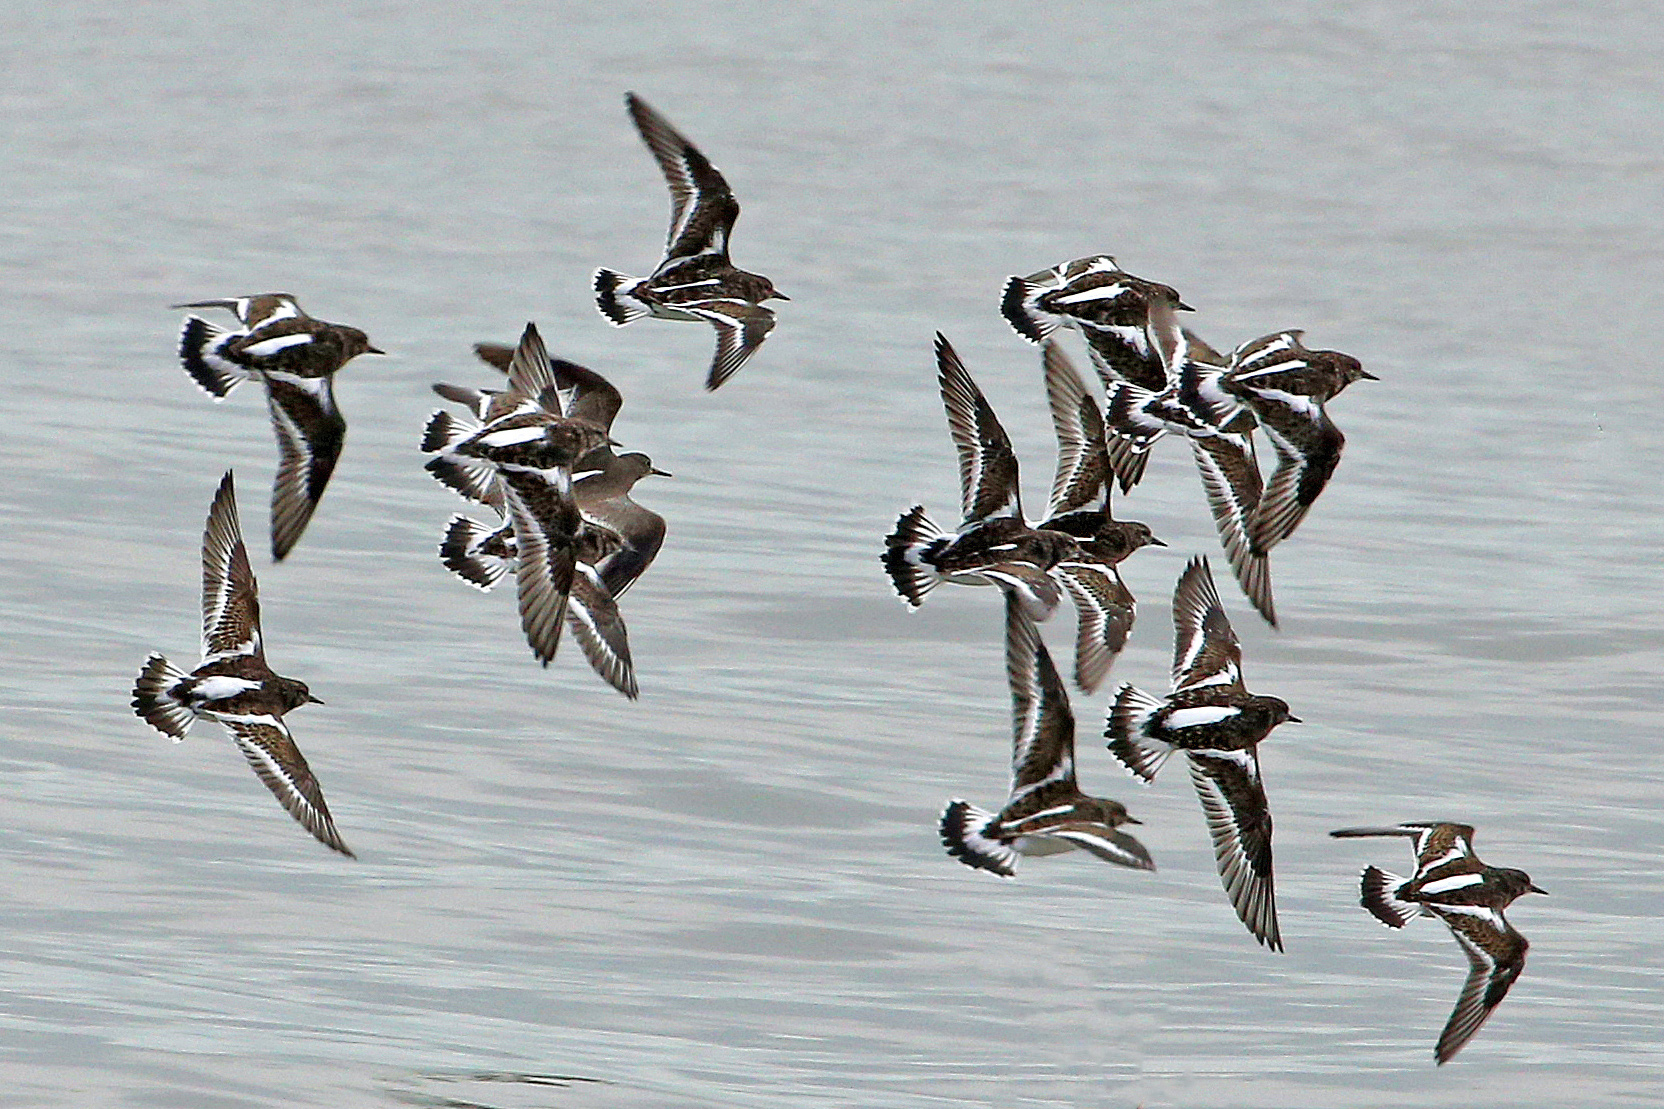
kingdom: Animalia
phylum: Chordata
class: Aves
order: Charadriiformes
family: Scolopacidae
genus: Arenaria
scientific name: Arenaria interpres
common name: Ruddy turnstone
